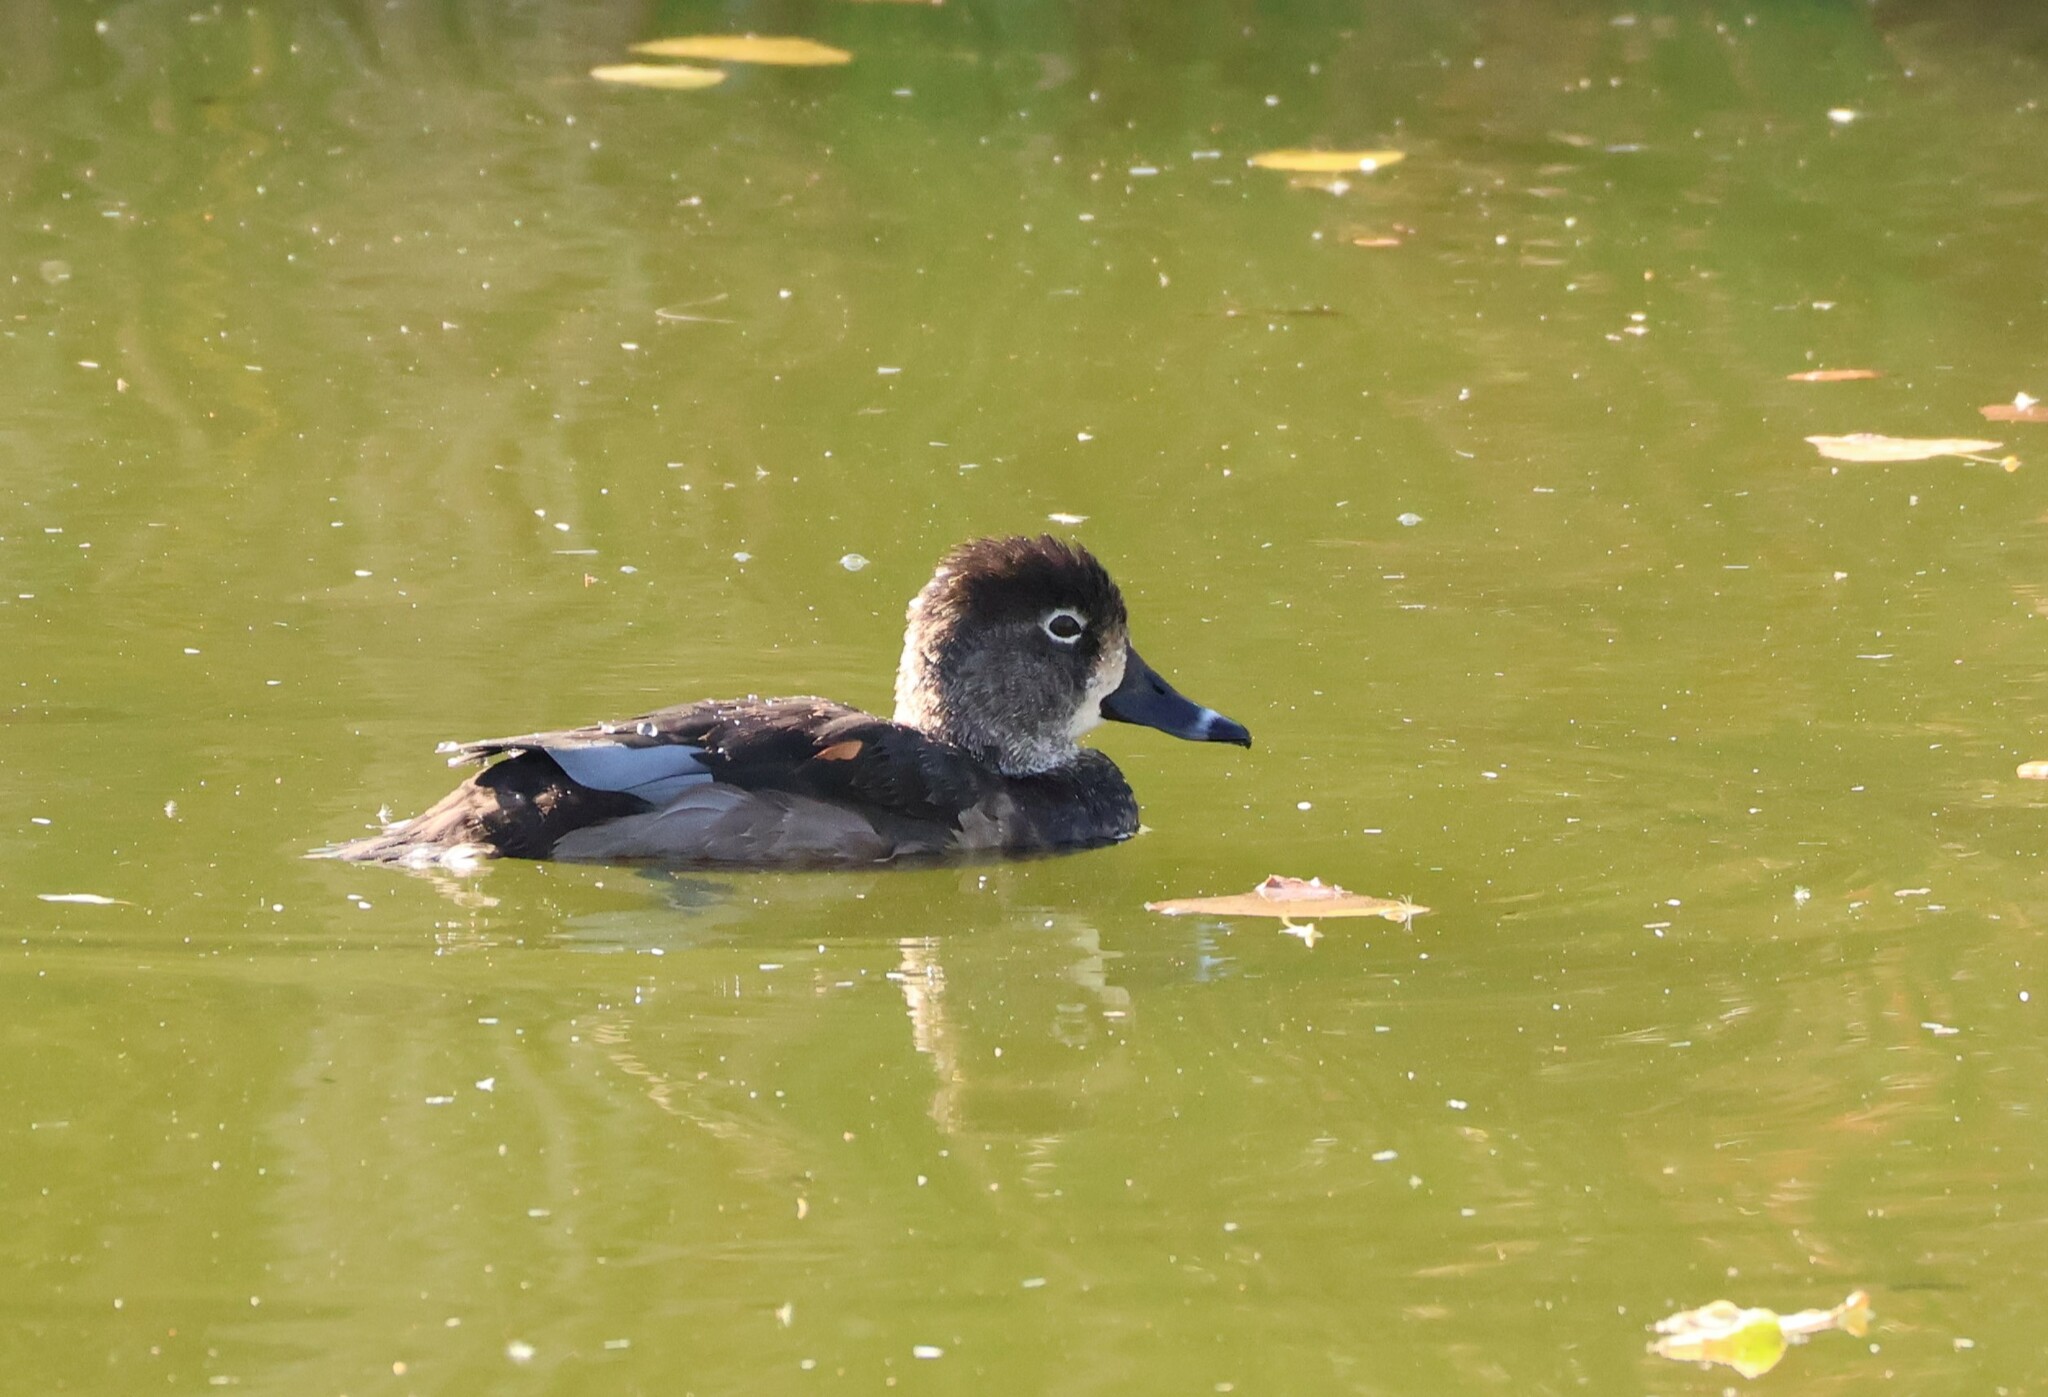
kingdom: Animalia
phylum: Chordata
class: Aves
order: Anseriformes
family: Anatidae
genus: Aythya
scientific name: Aythya collaris
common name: Ring-necked duck
